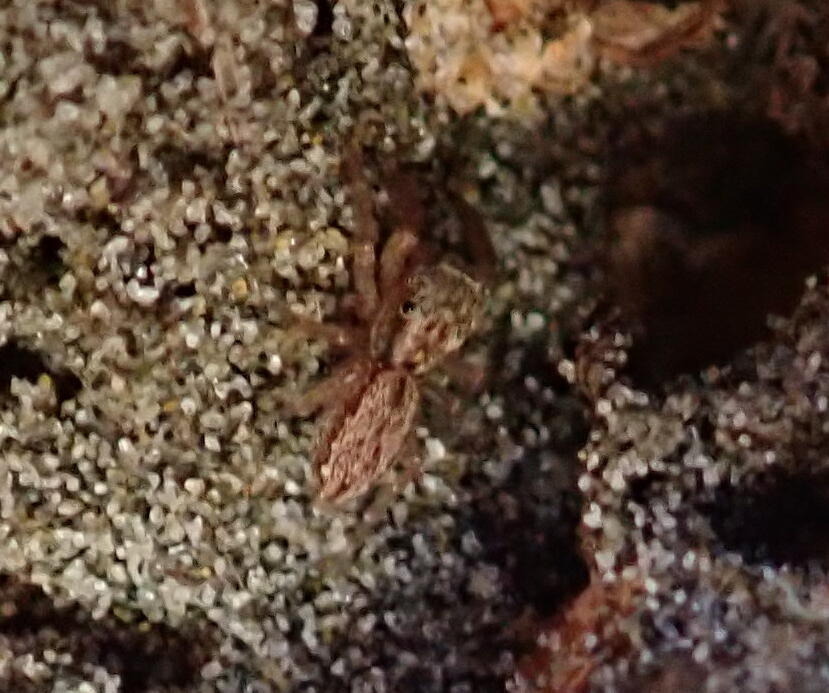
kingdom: Animalia
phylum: Arthropoda
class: Arachnida
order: Araneae
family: Salticidae
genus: Trite
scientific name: Trite auricoma
